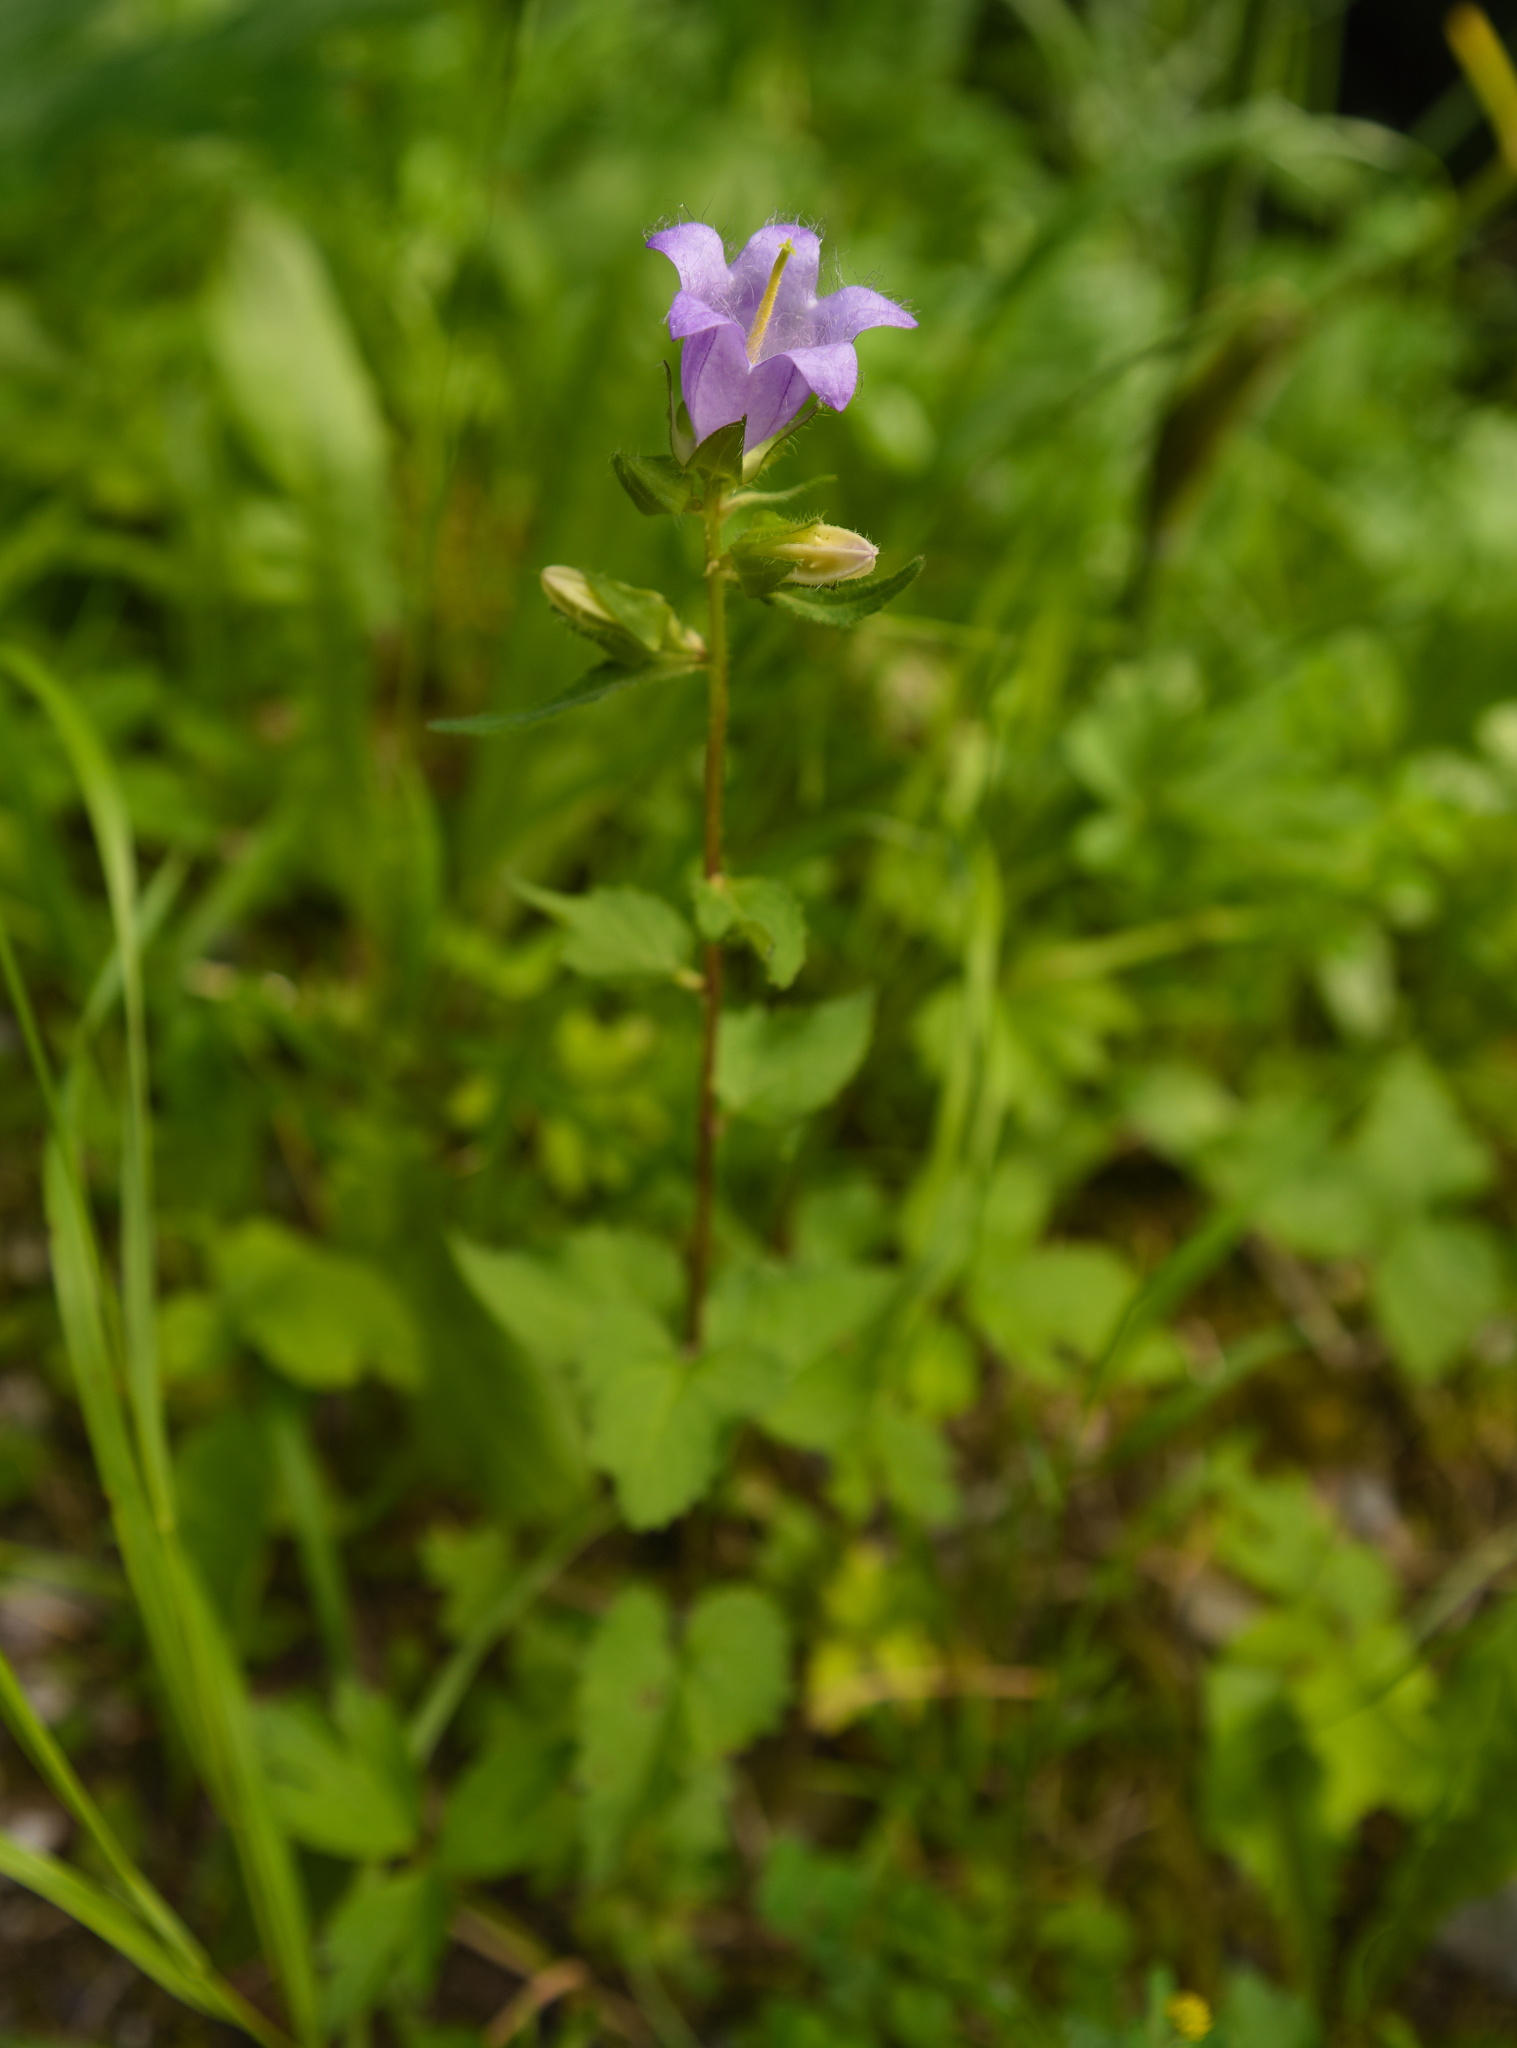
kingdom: Plantae
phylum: Tracheophyta
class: Magnoliopsida
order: Asterales
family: Campanulaceae
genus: Campanula
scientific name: Campanula trachelium
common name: Nettle-leaved bellflower
